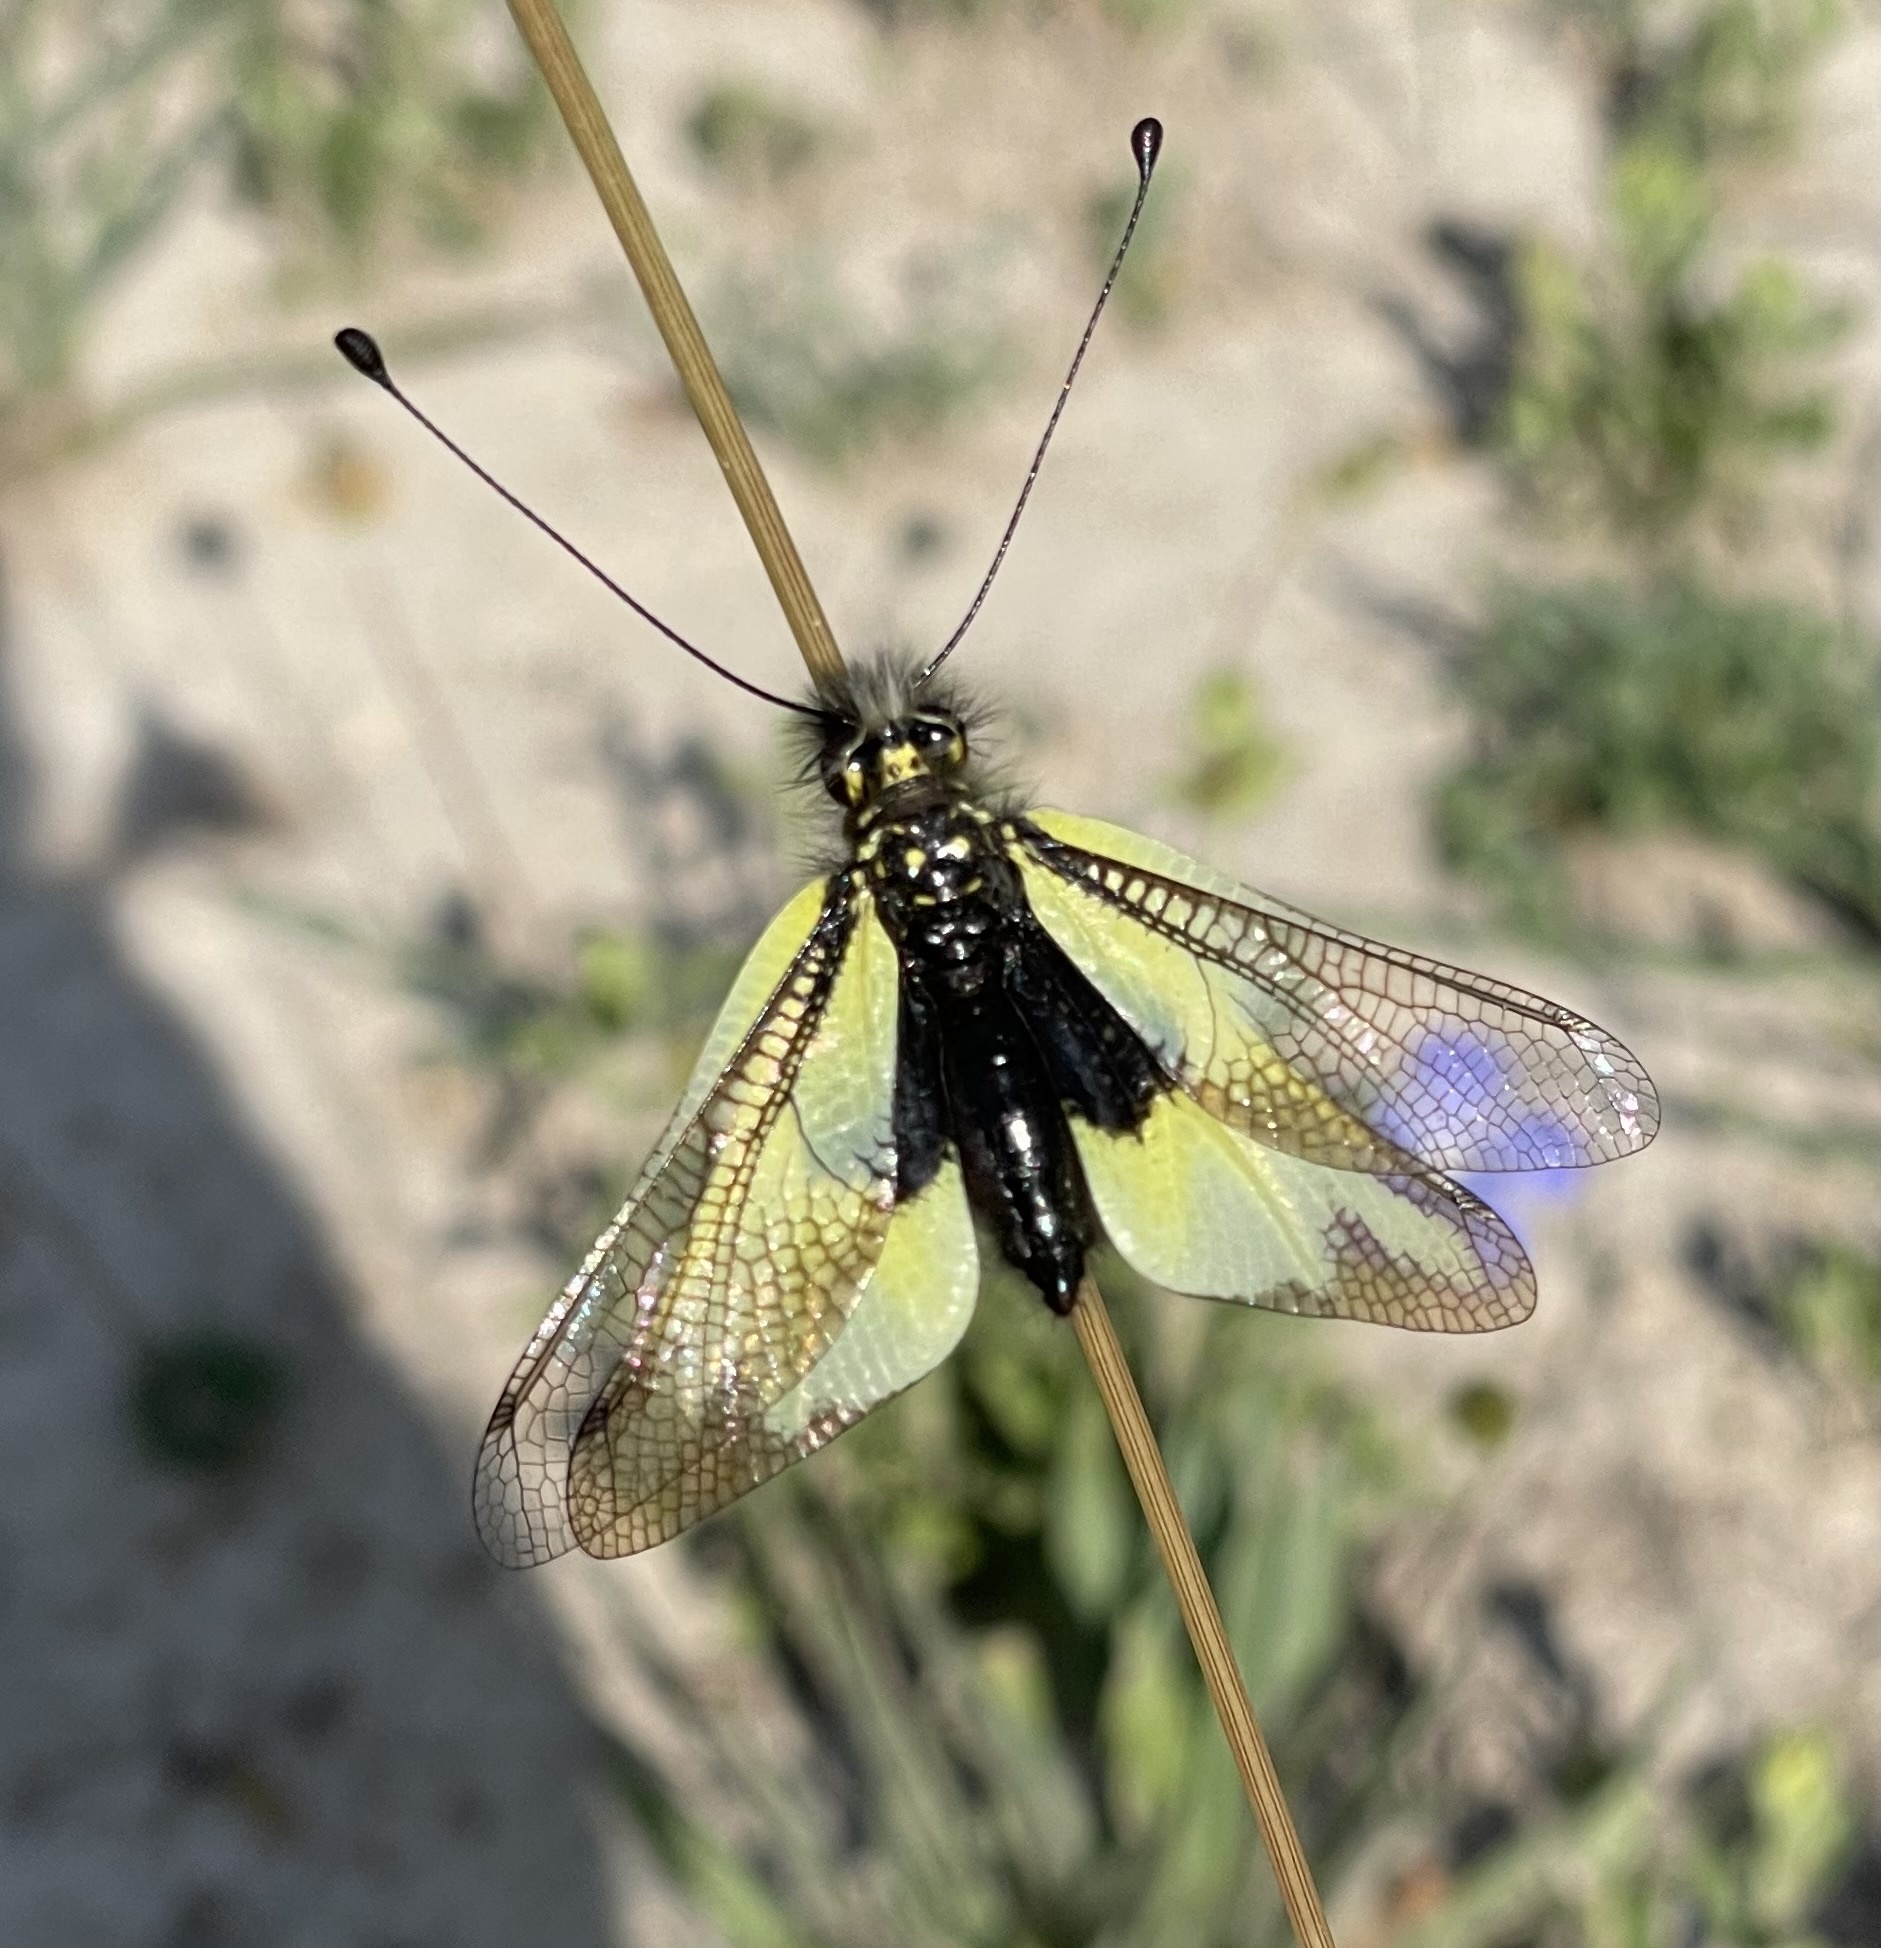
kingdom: Animalia
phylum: Arthropoda
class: Insecta
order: Neuroptera
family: Ascalaphidae
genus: Libelloides
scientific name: Libelloides cunii
